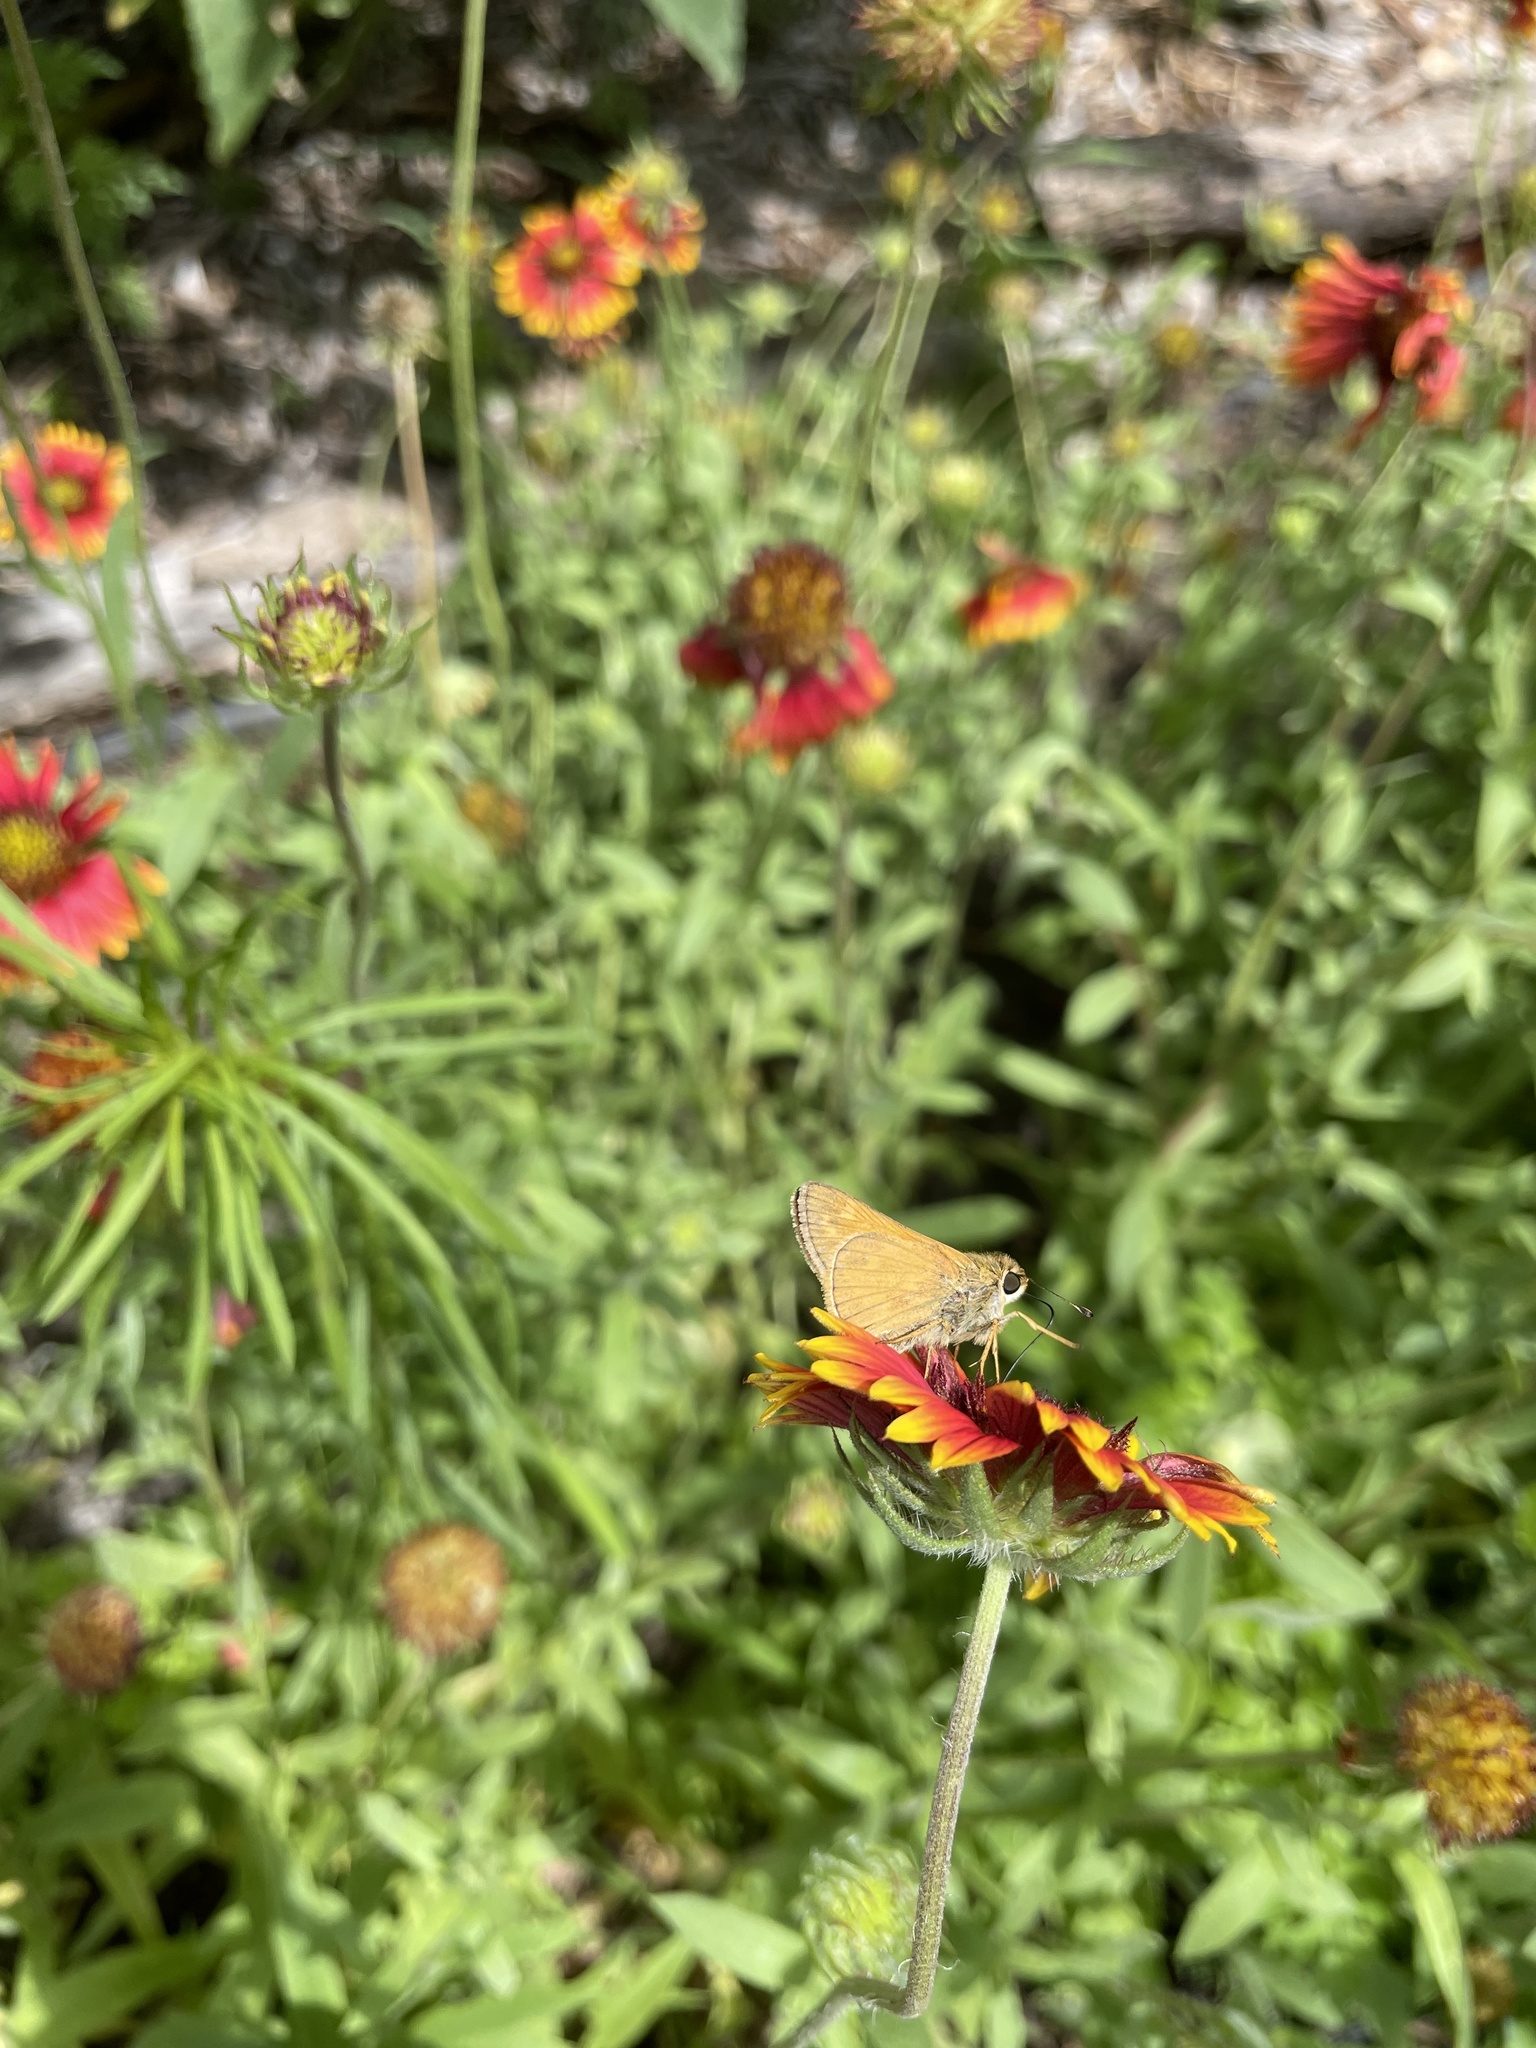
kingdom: Animalia
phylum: Arthropoda
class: Insecta
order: Lepidoptera
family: Hesperiidae
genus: Atalopedes
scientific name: Atalopedes
